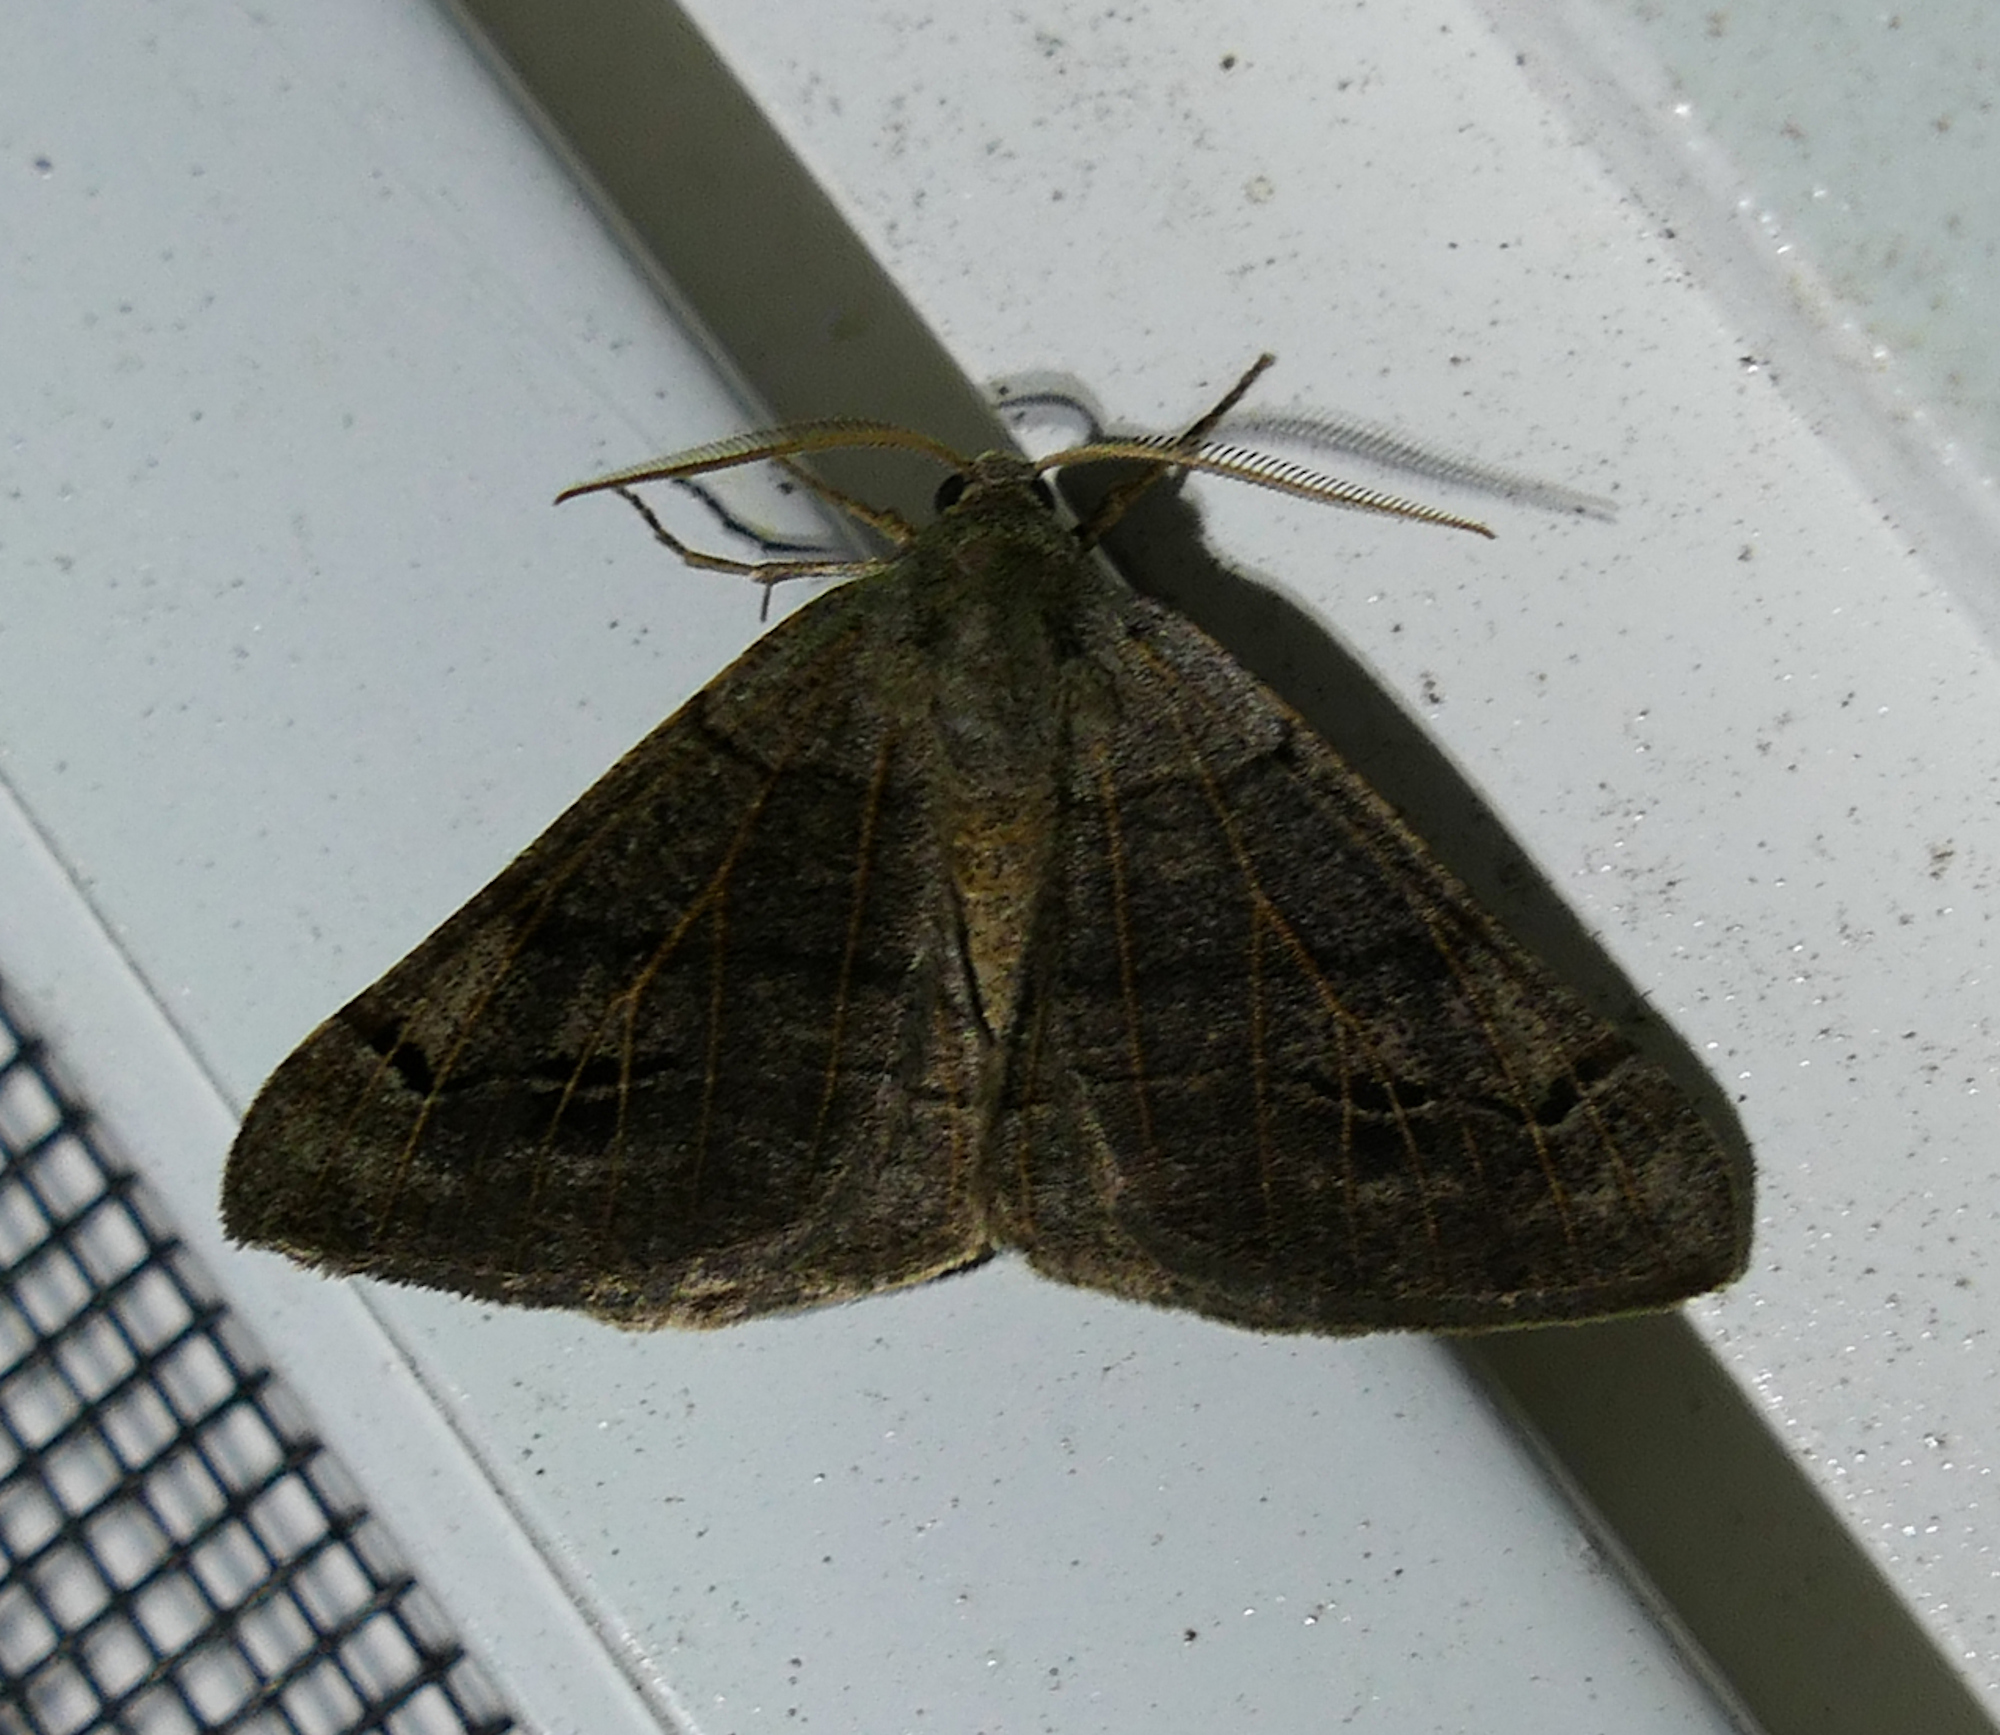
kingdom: Animalia
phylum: Arthropoda
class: Insecta
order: Lepidoptera
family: Geometridae
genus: Isturgia
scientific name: Isturgia dislocaria
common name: Pale-viened enconista
